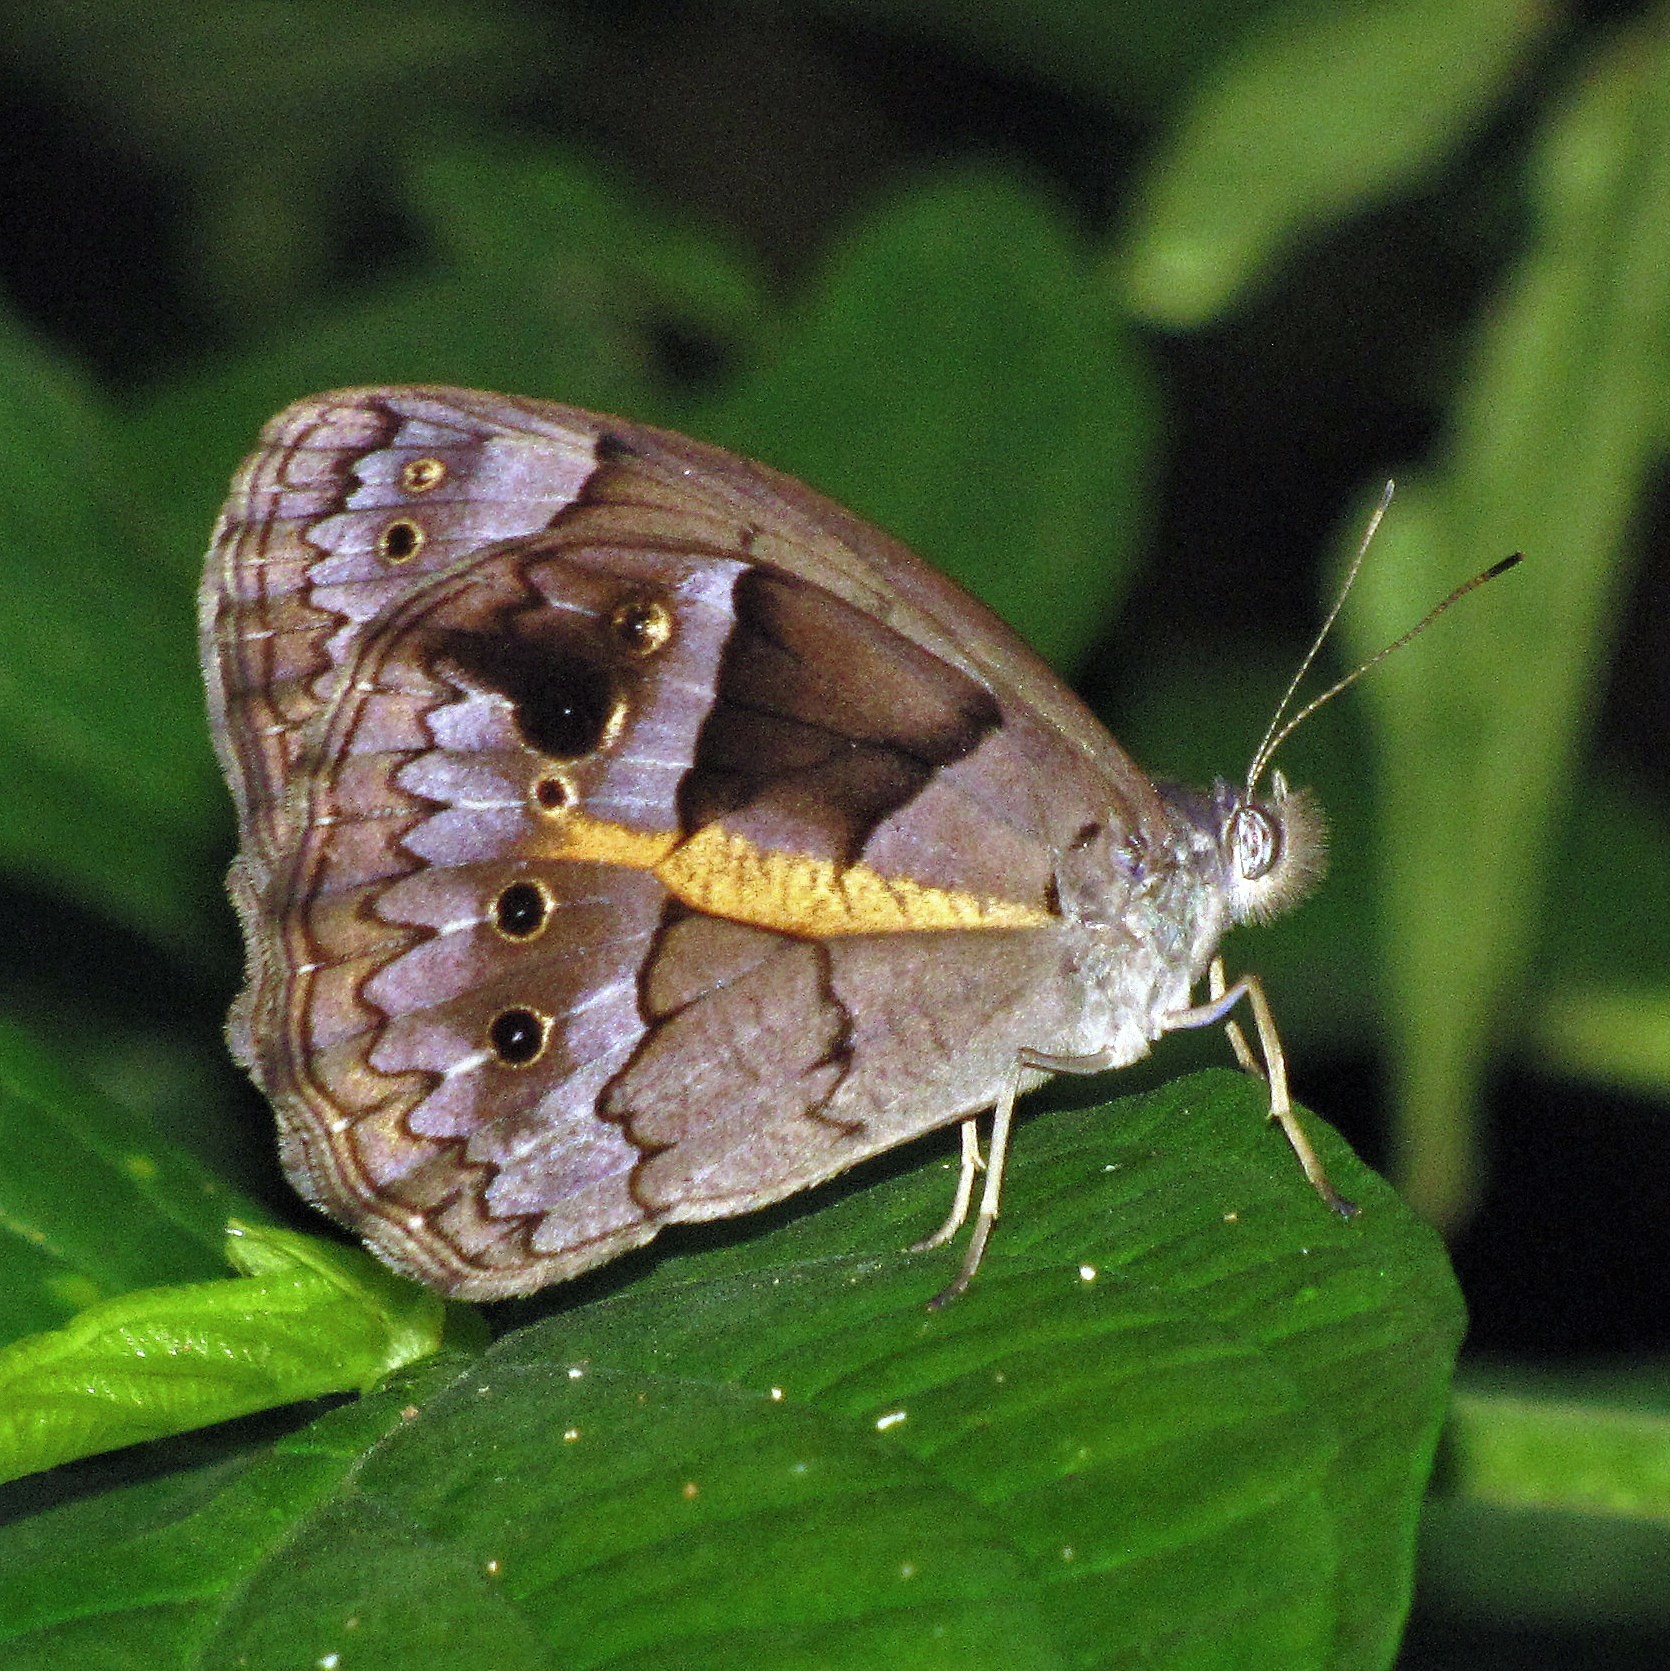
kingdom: Animalia
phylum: Arthropoda
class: Insecta
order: Lepidoptera
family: Nymphalidae
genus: Posttaygetis
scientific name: Posttaygetis penelea
